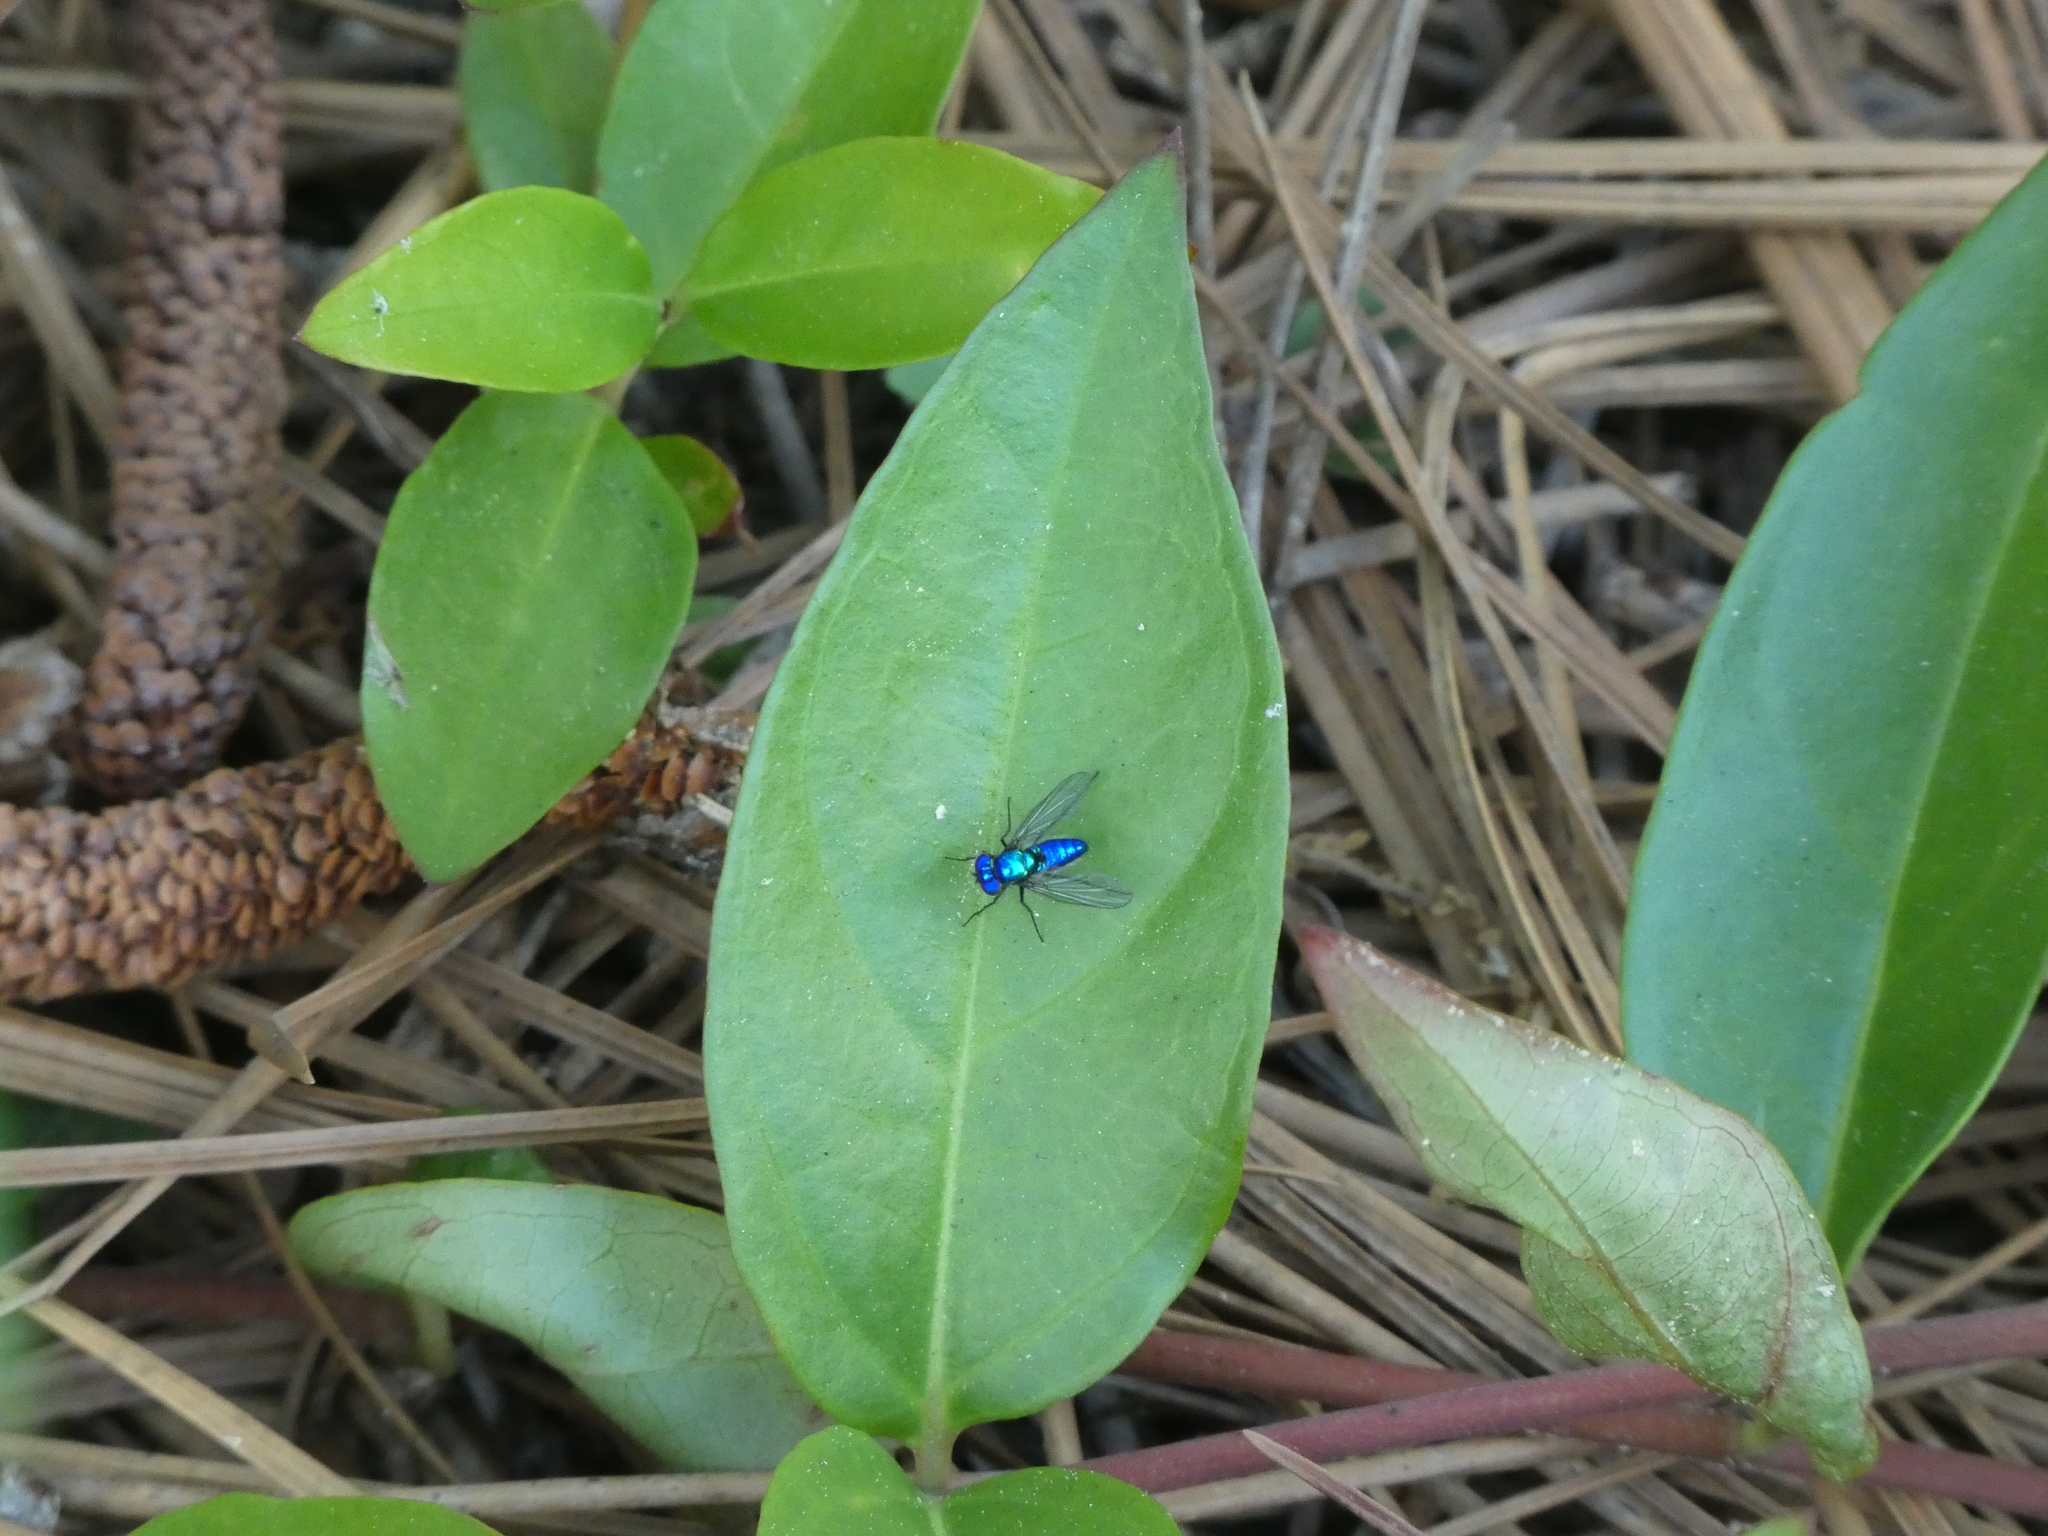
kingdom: Animalia
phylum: Arthropoda
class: Insecta
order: Diptera
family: Dolichopodidae
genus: Condylostylus
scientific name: Condylostylus mundus
